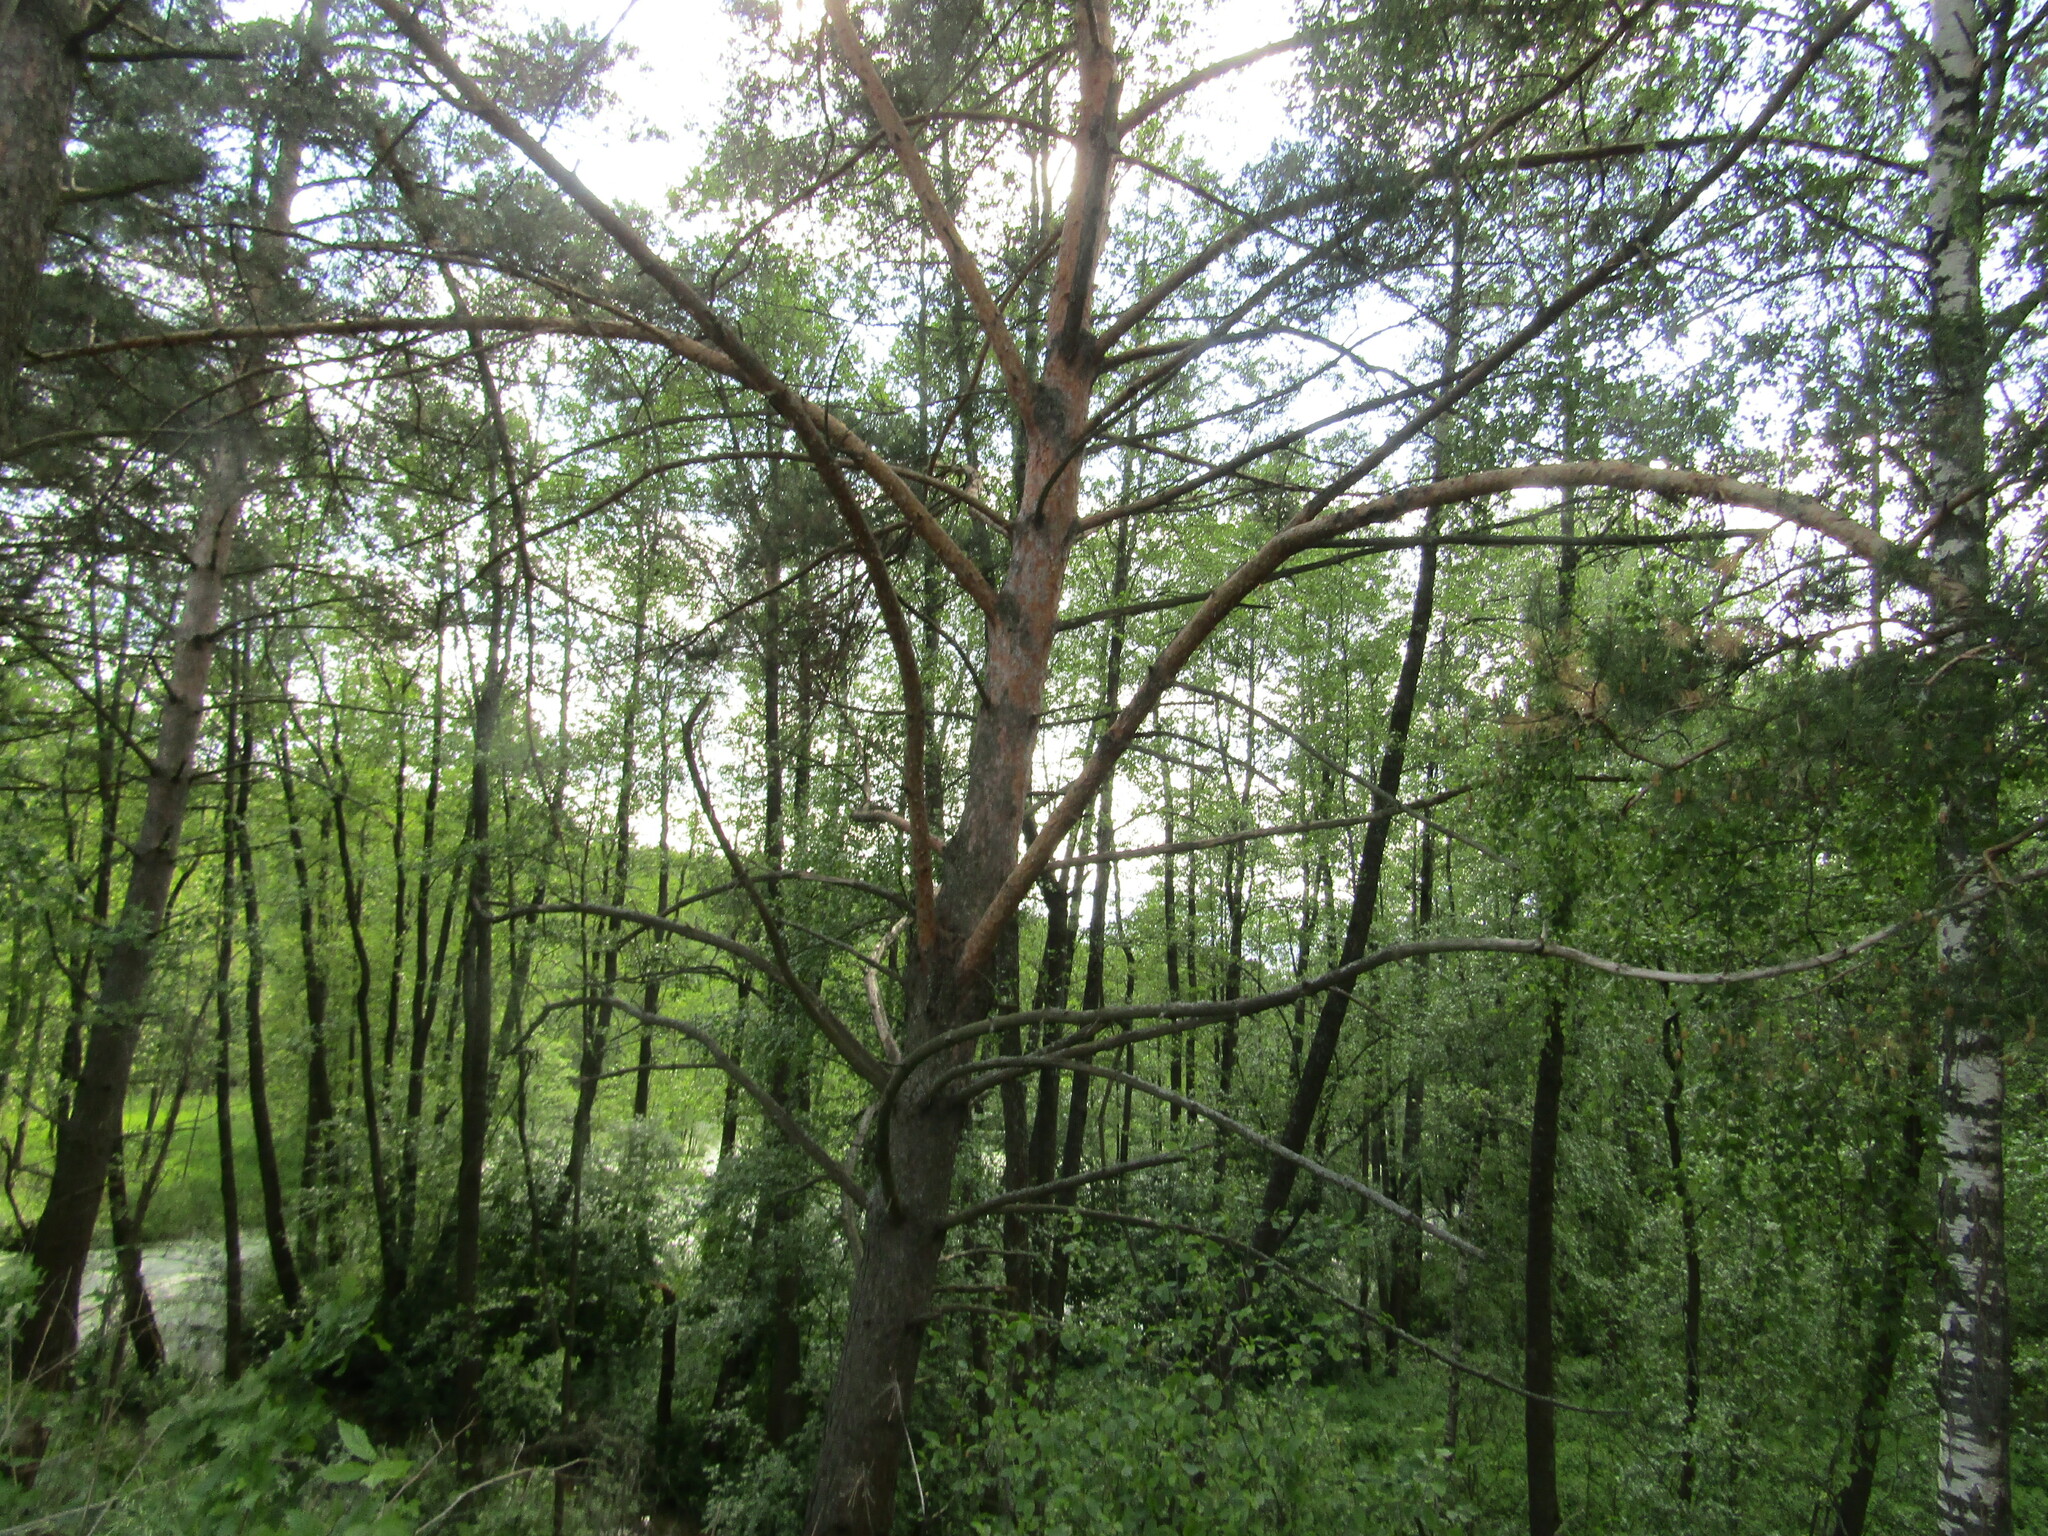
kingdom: Plantae
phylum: Tracheophyta
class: Pinopsida
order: Pinales
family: Pinaceae
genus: Pinus
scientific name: Pinus sylvestris
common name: Scots pine
